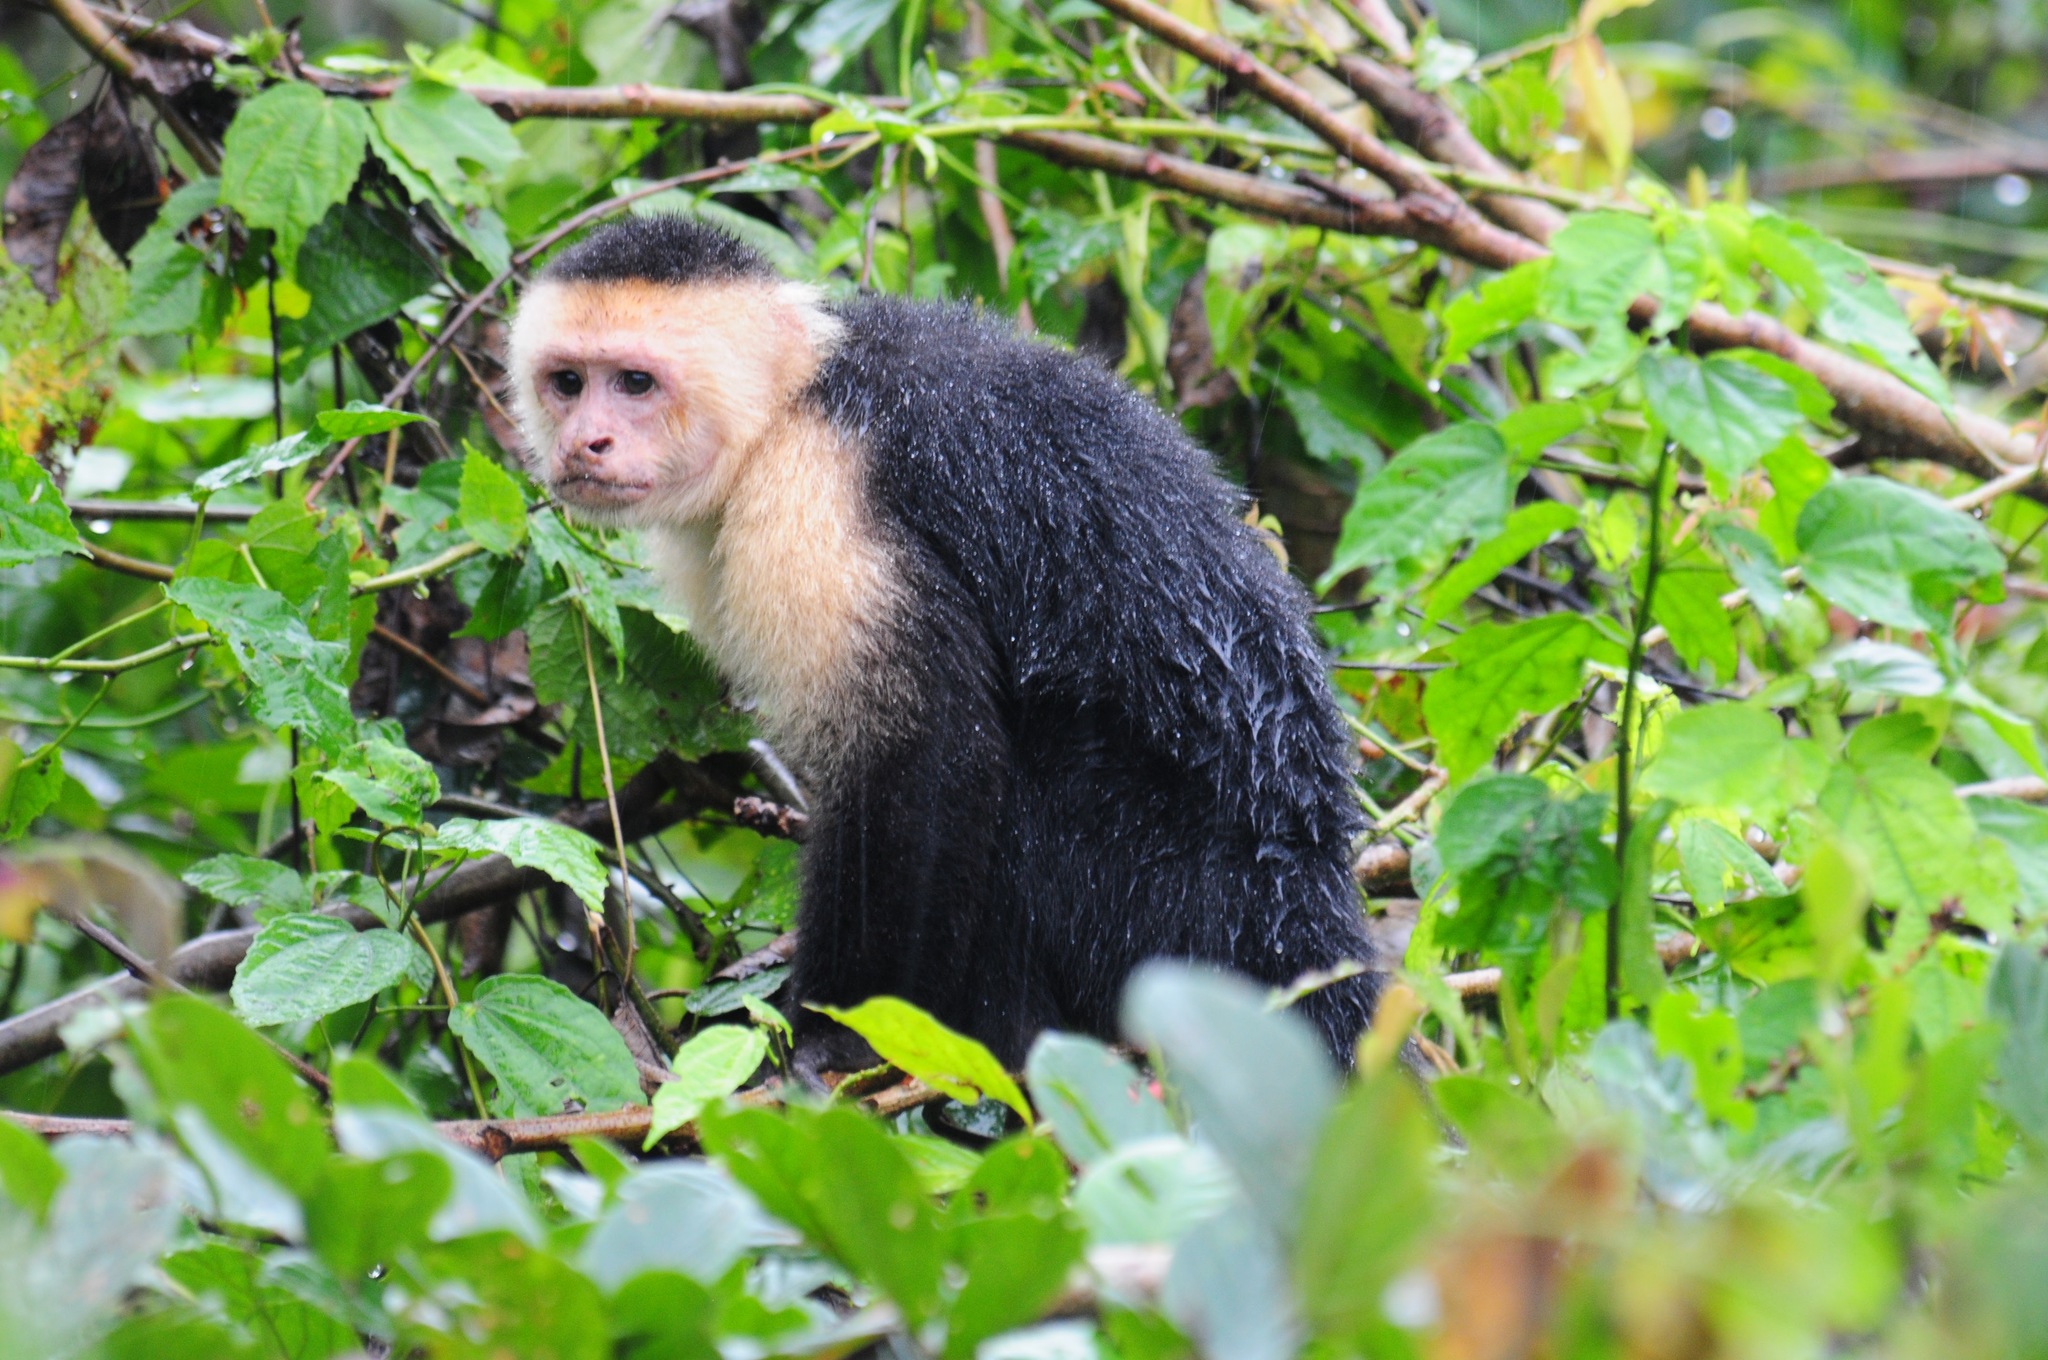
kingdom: Animalia
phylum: Chordata
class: Mammalia
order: Primates
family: Cebidae
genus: Cebus
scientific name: Cebus imitator
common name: Panamanian white-faced capuchin
